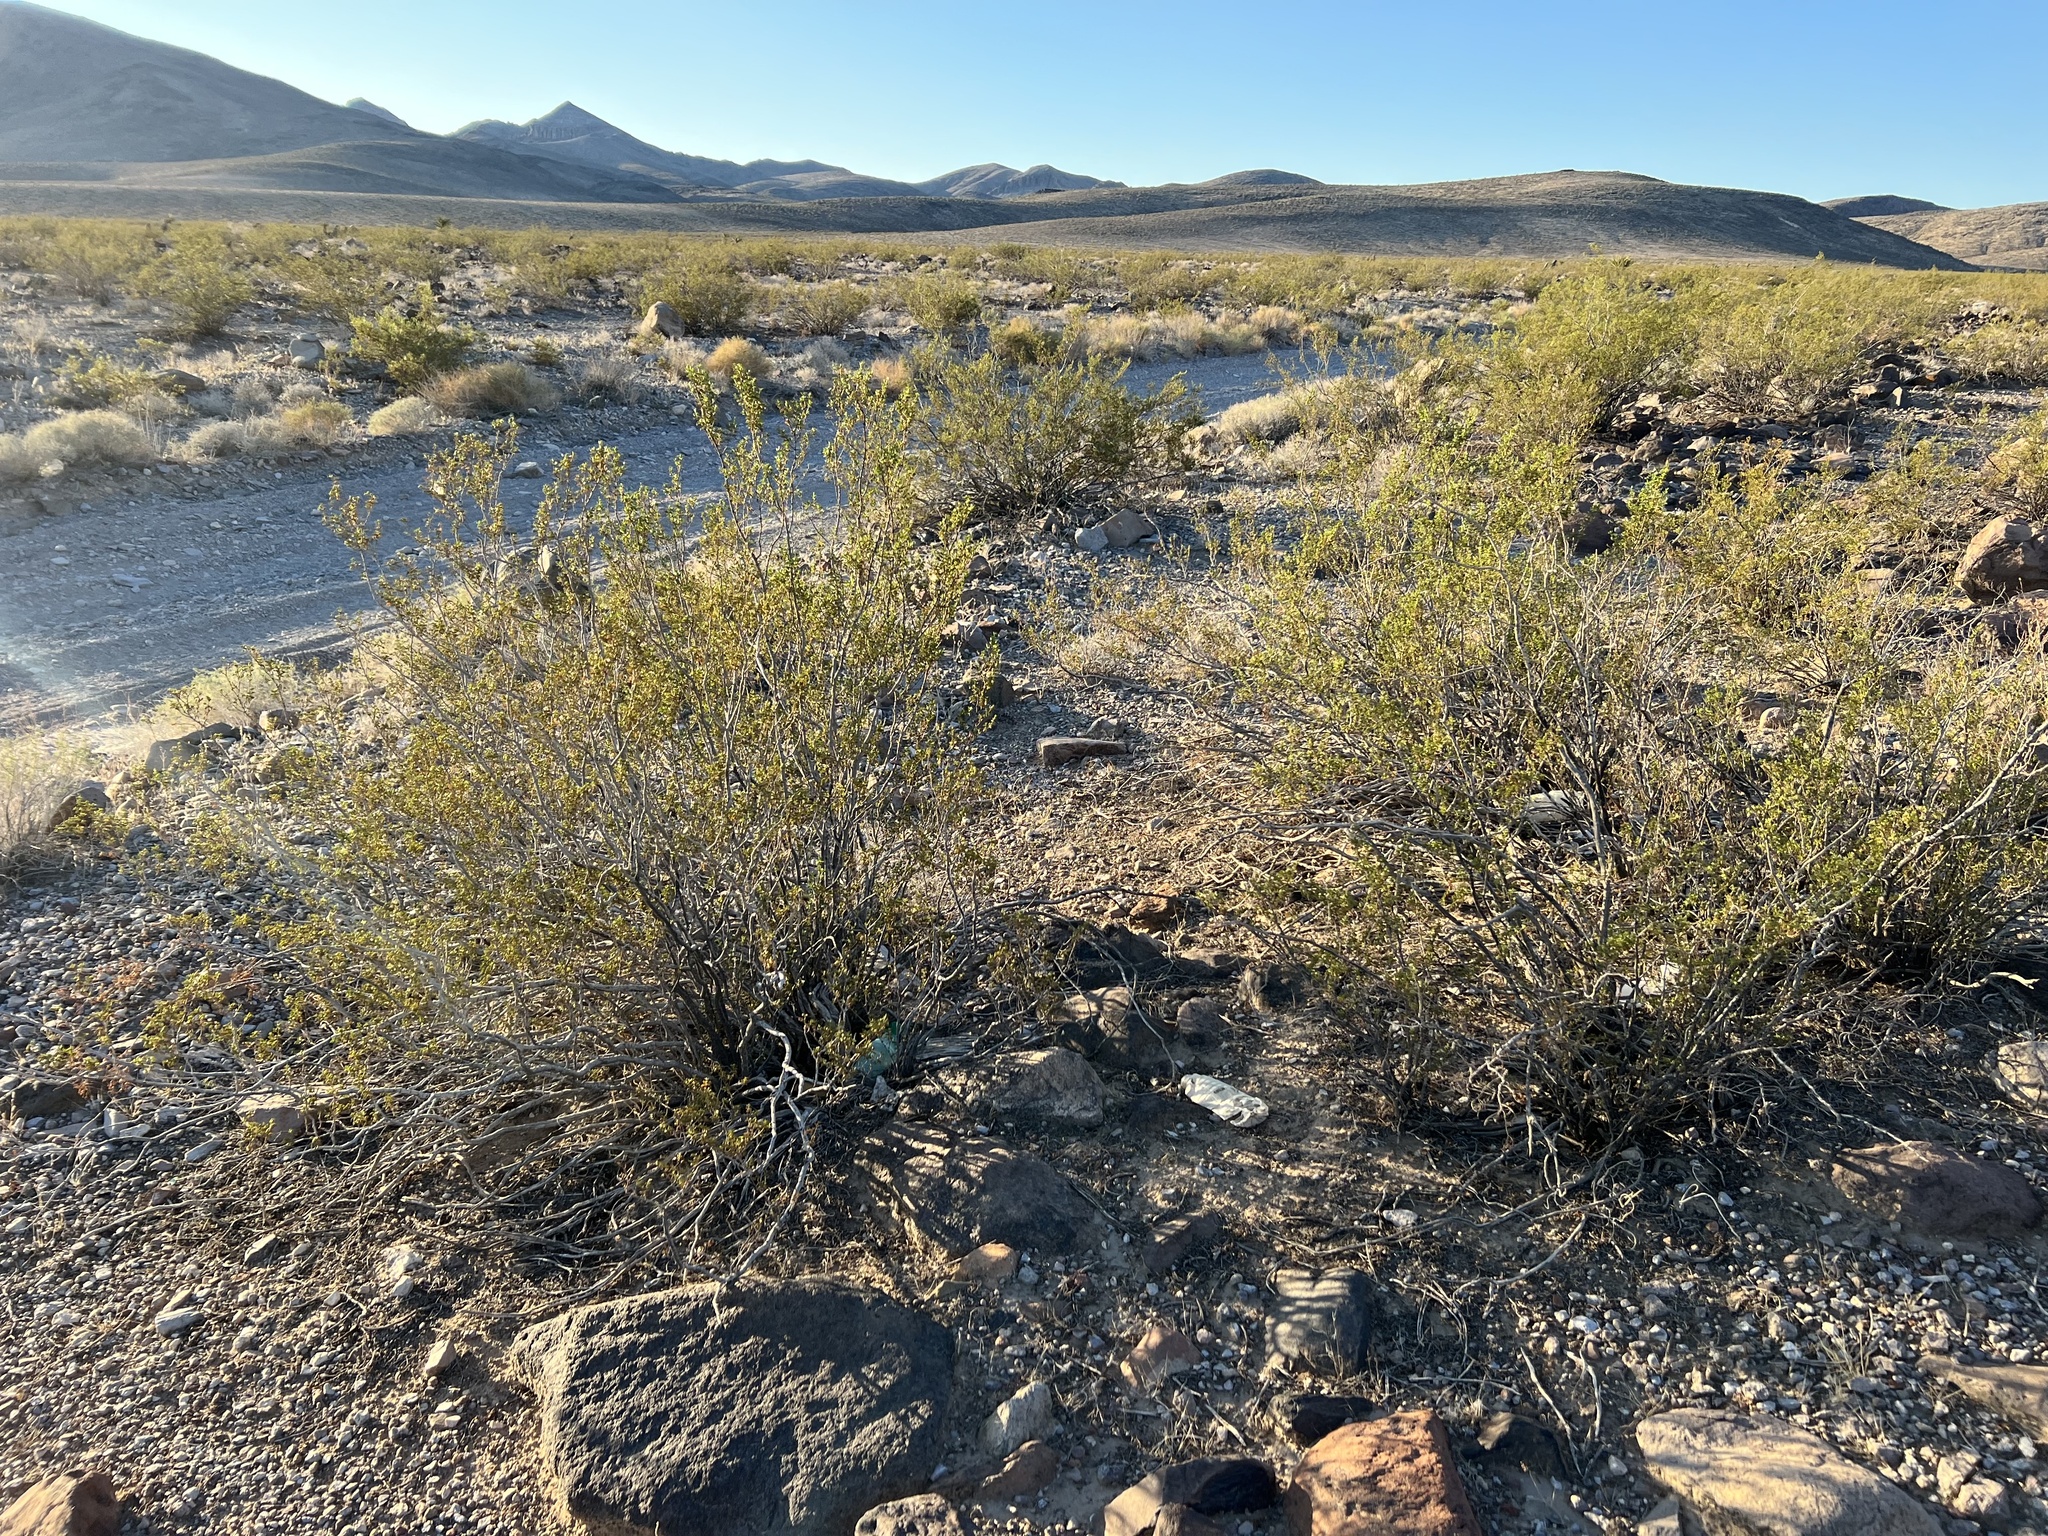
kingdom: Plantae
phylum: Tracheophyta
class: Magnoliopsida
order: Zygophyllales
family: Zygophyllaceae
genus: Larrea
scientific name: Larrea tridentata
